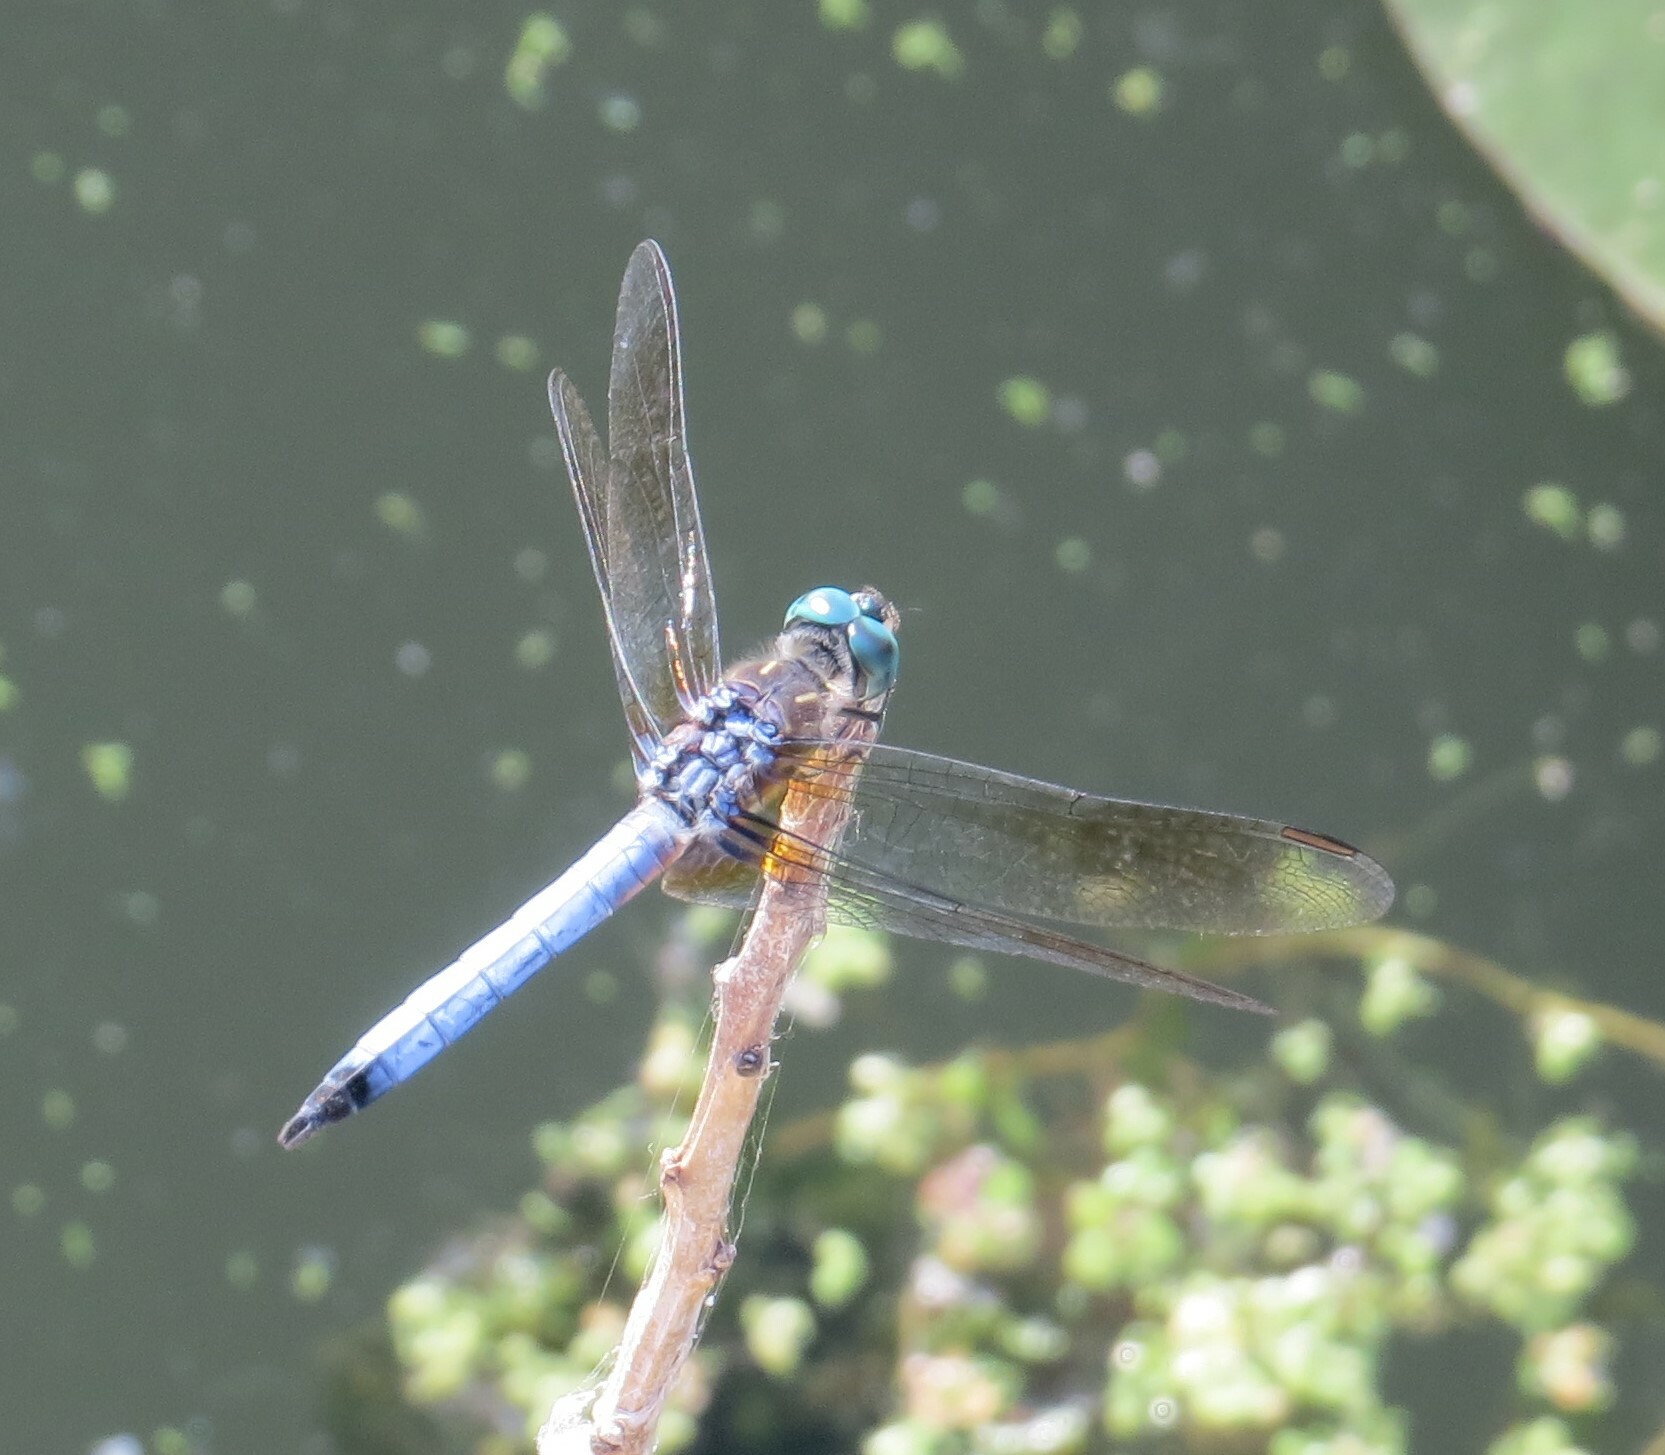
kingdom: Animalia
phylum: Arthropoda
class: Insecta
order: Odonata
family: Libellulidae
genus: Pachydiplax
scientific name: Pachydiplax longipennis
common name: Blue dasher
